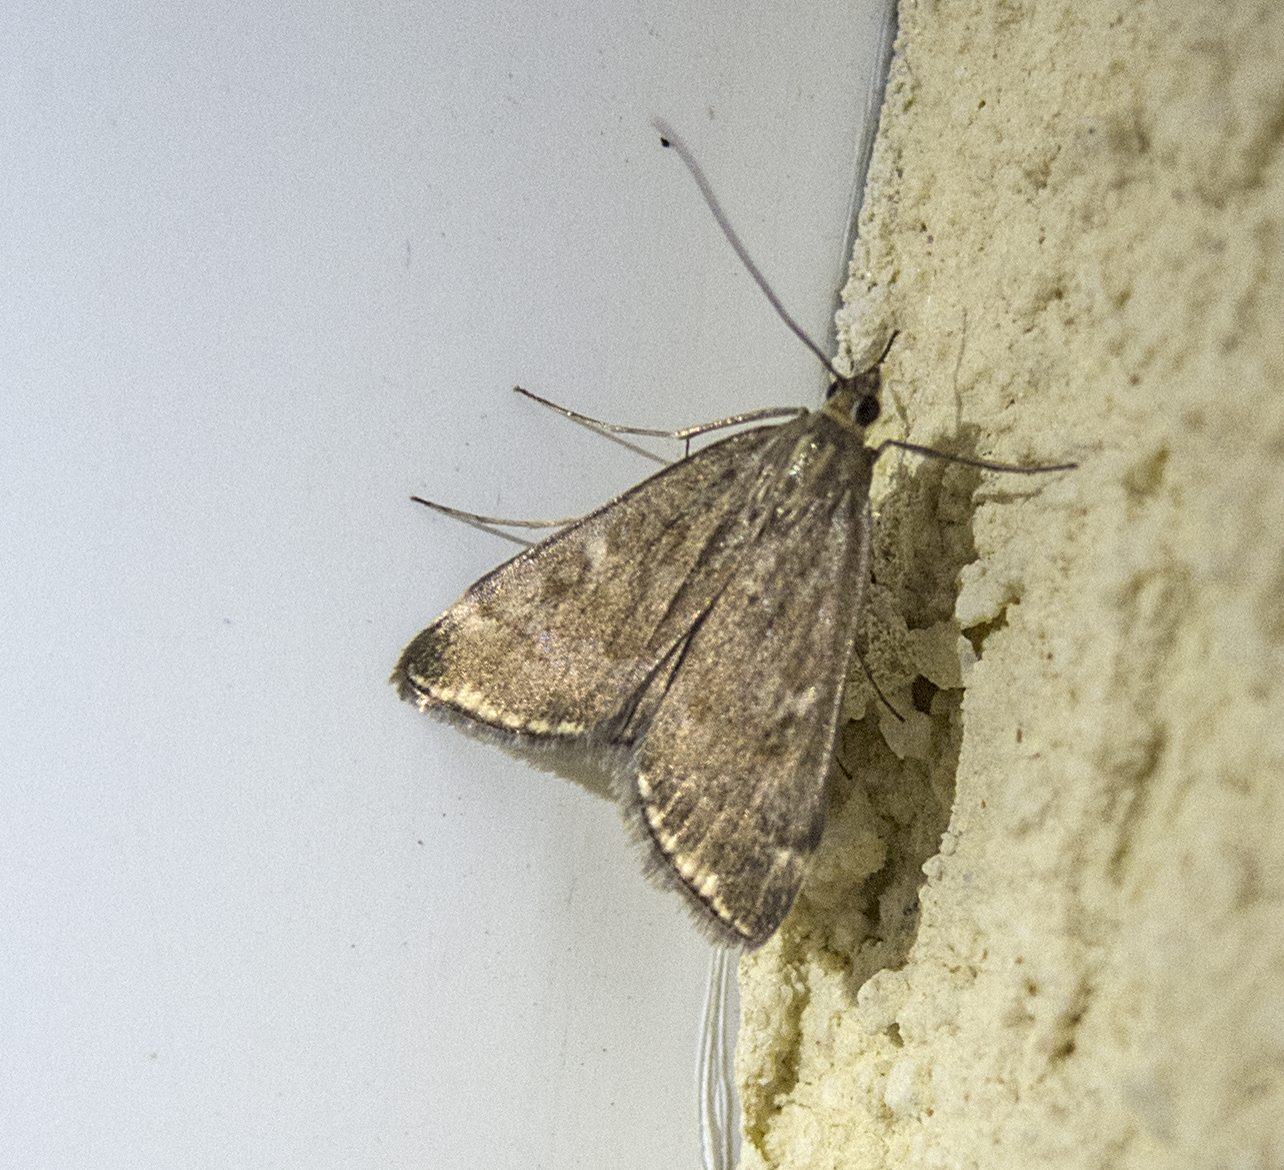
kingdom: Animalia
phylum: Arthropoda
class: Insecta
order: Lepidoptera
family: Crambidae
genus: Loxostege
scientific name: Loxostege sticticalis
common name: Crambid moth
